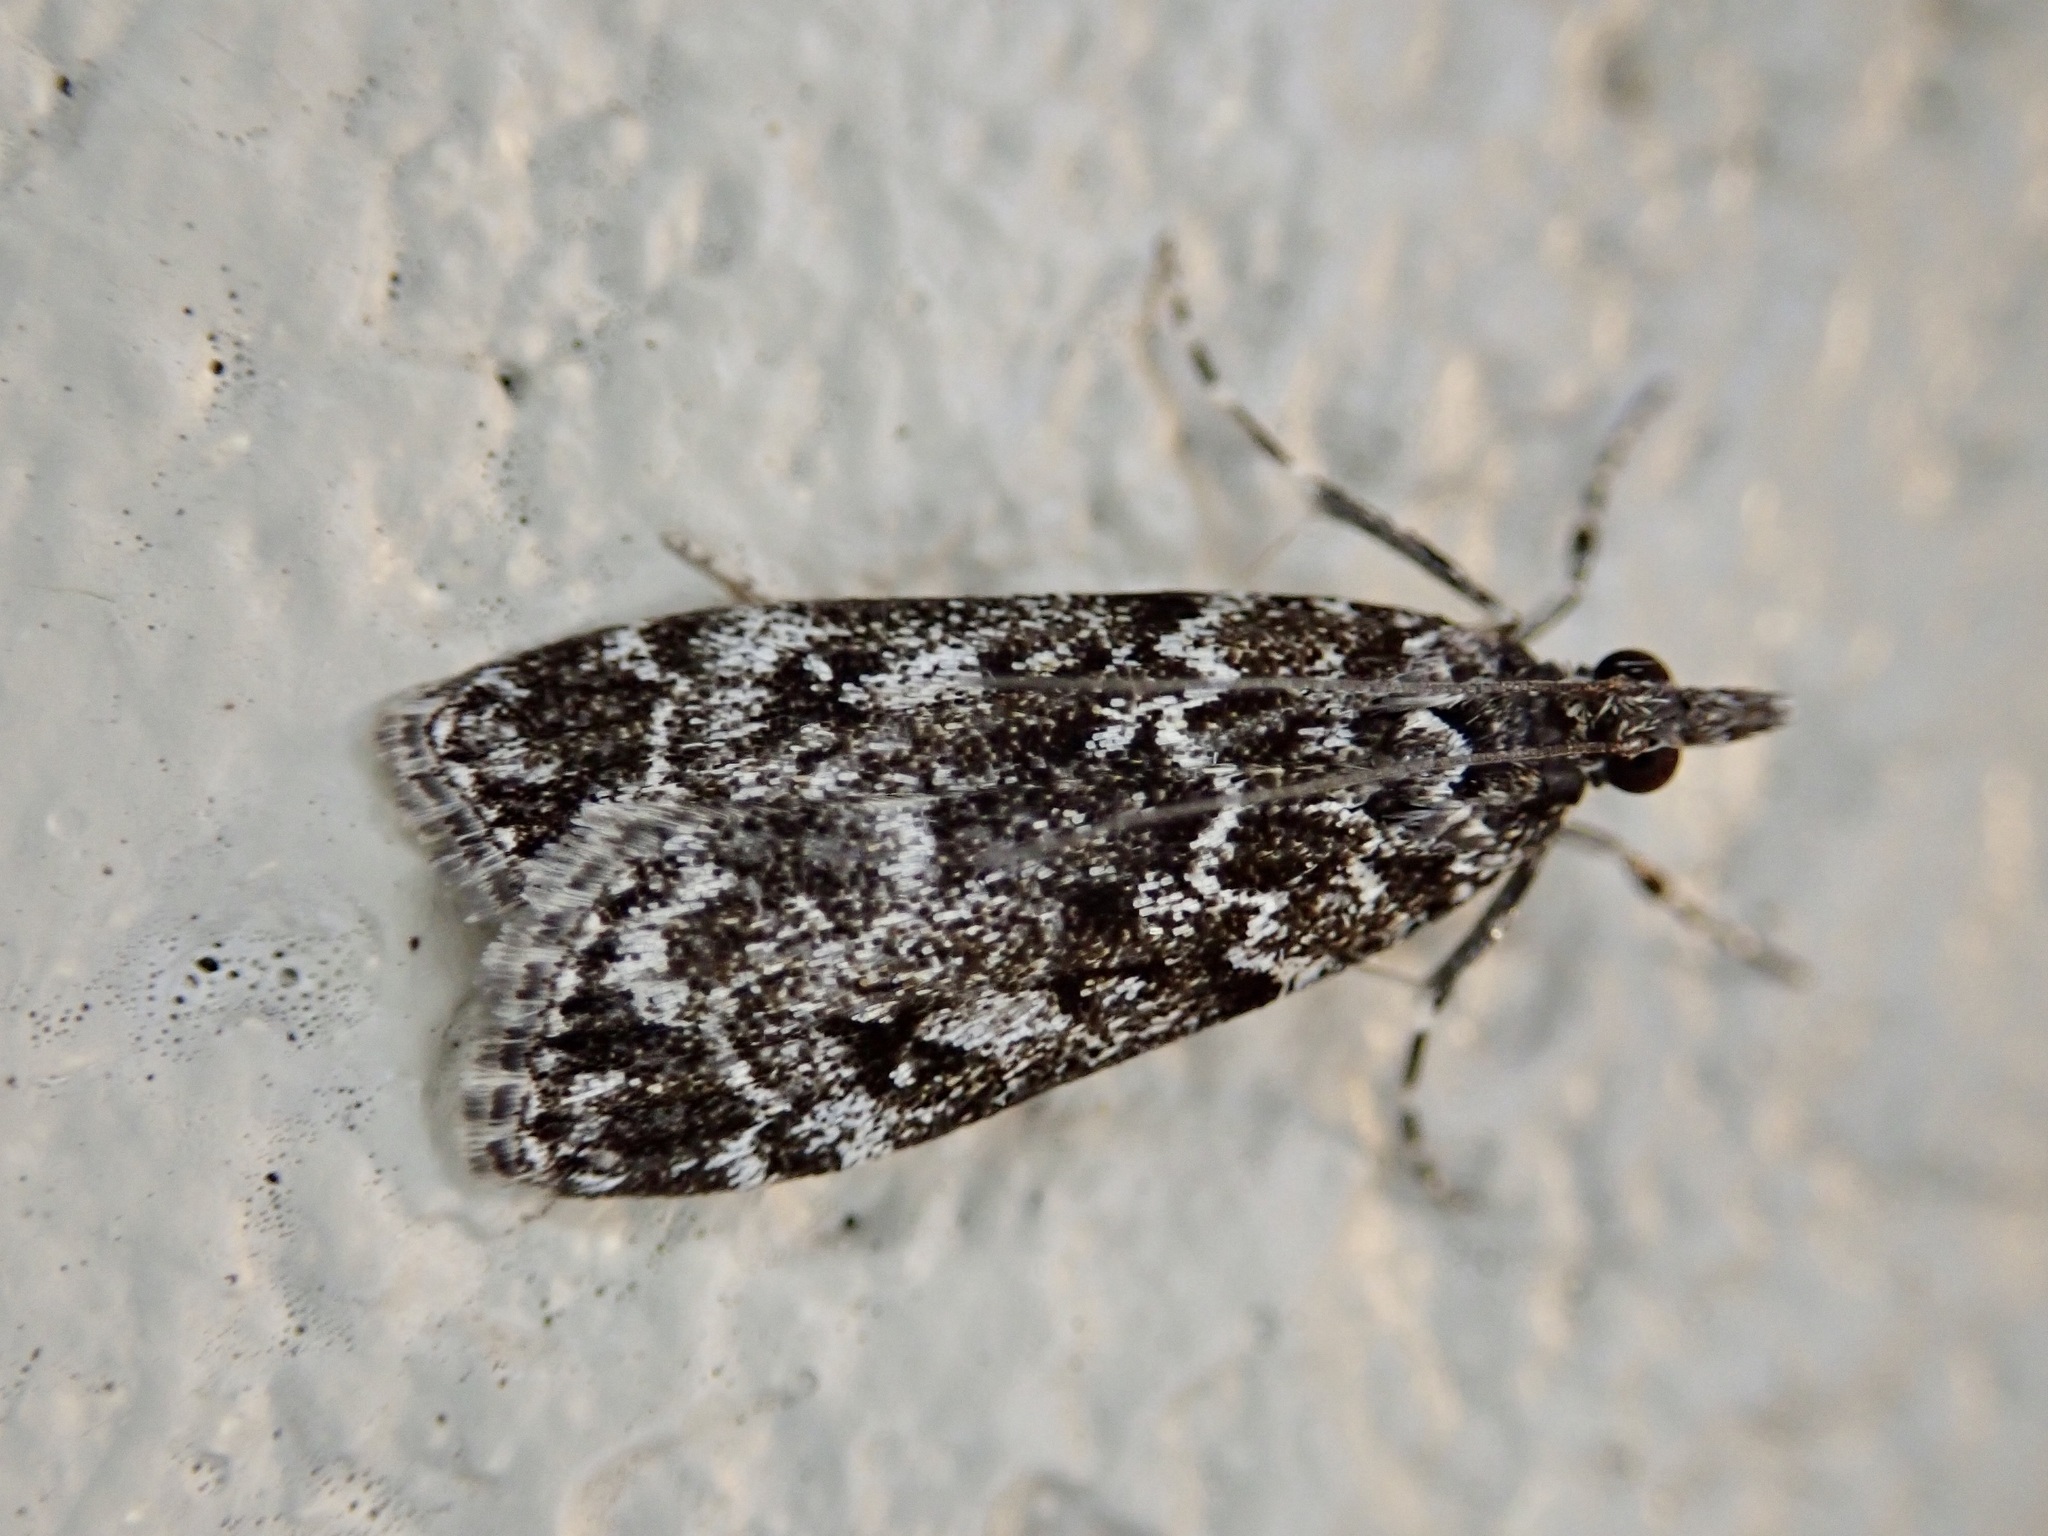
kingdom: Animalia
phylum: Arthropoda
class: Insecta
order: Lepidoptera
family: Crambidae
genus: Eudonia
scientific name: Eudonia philerga
